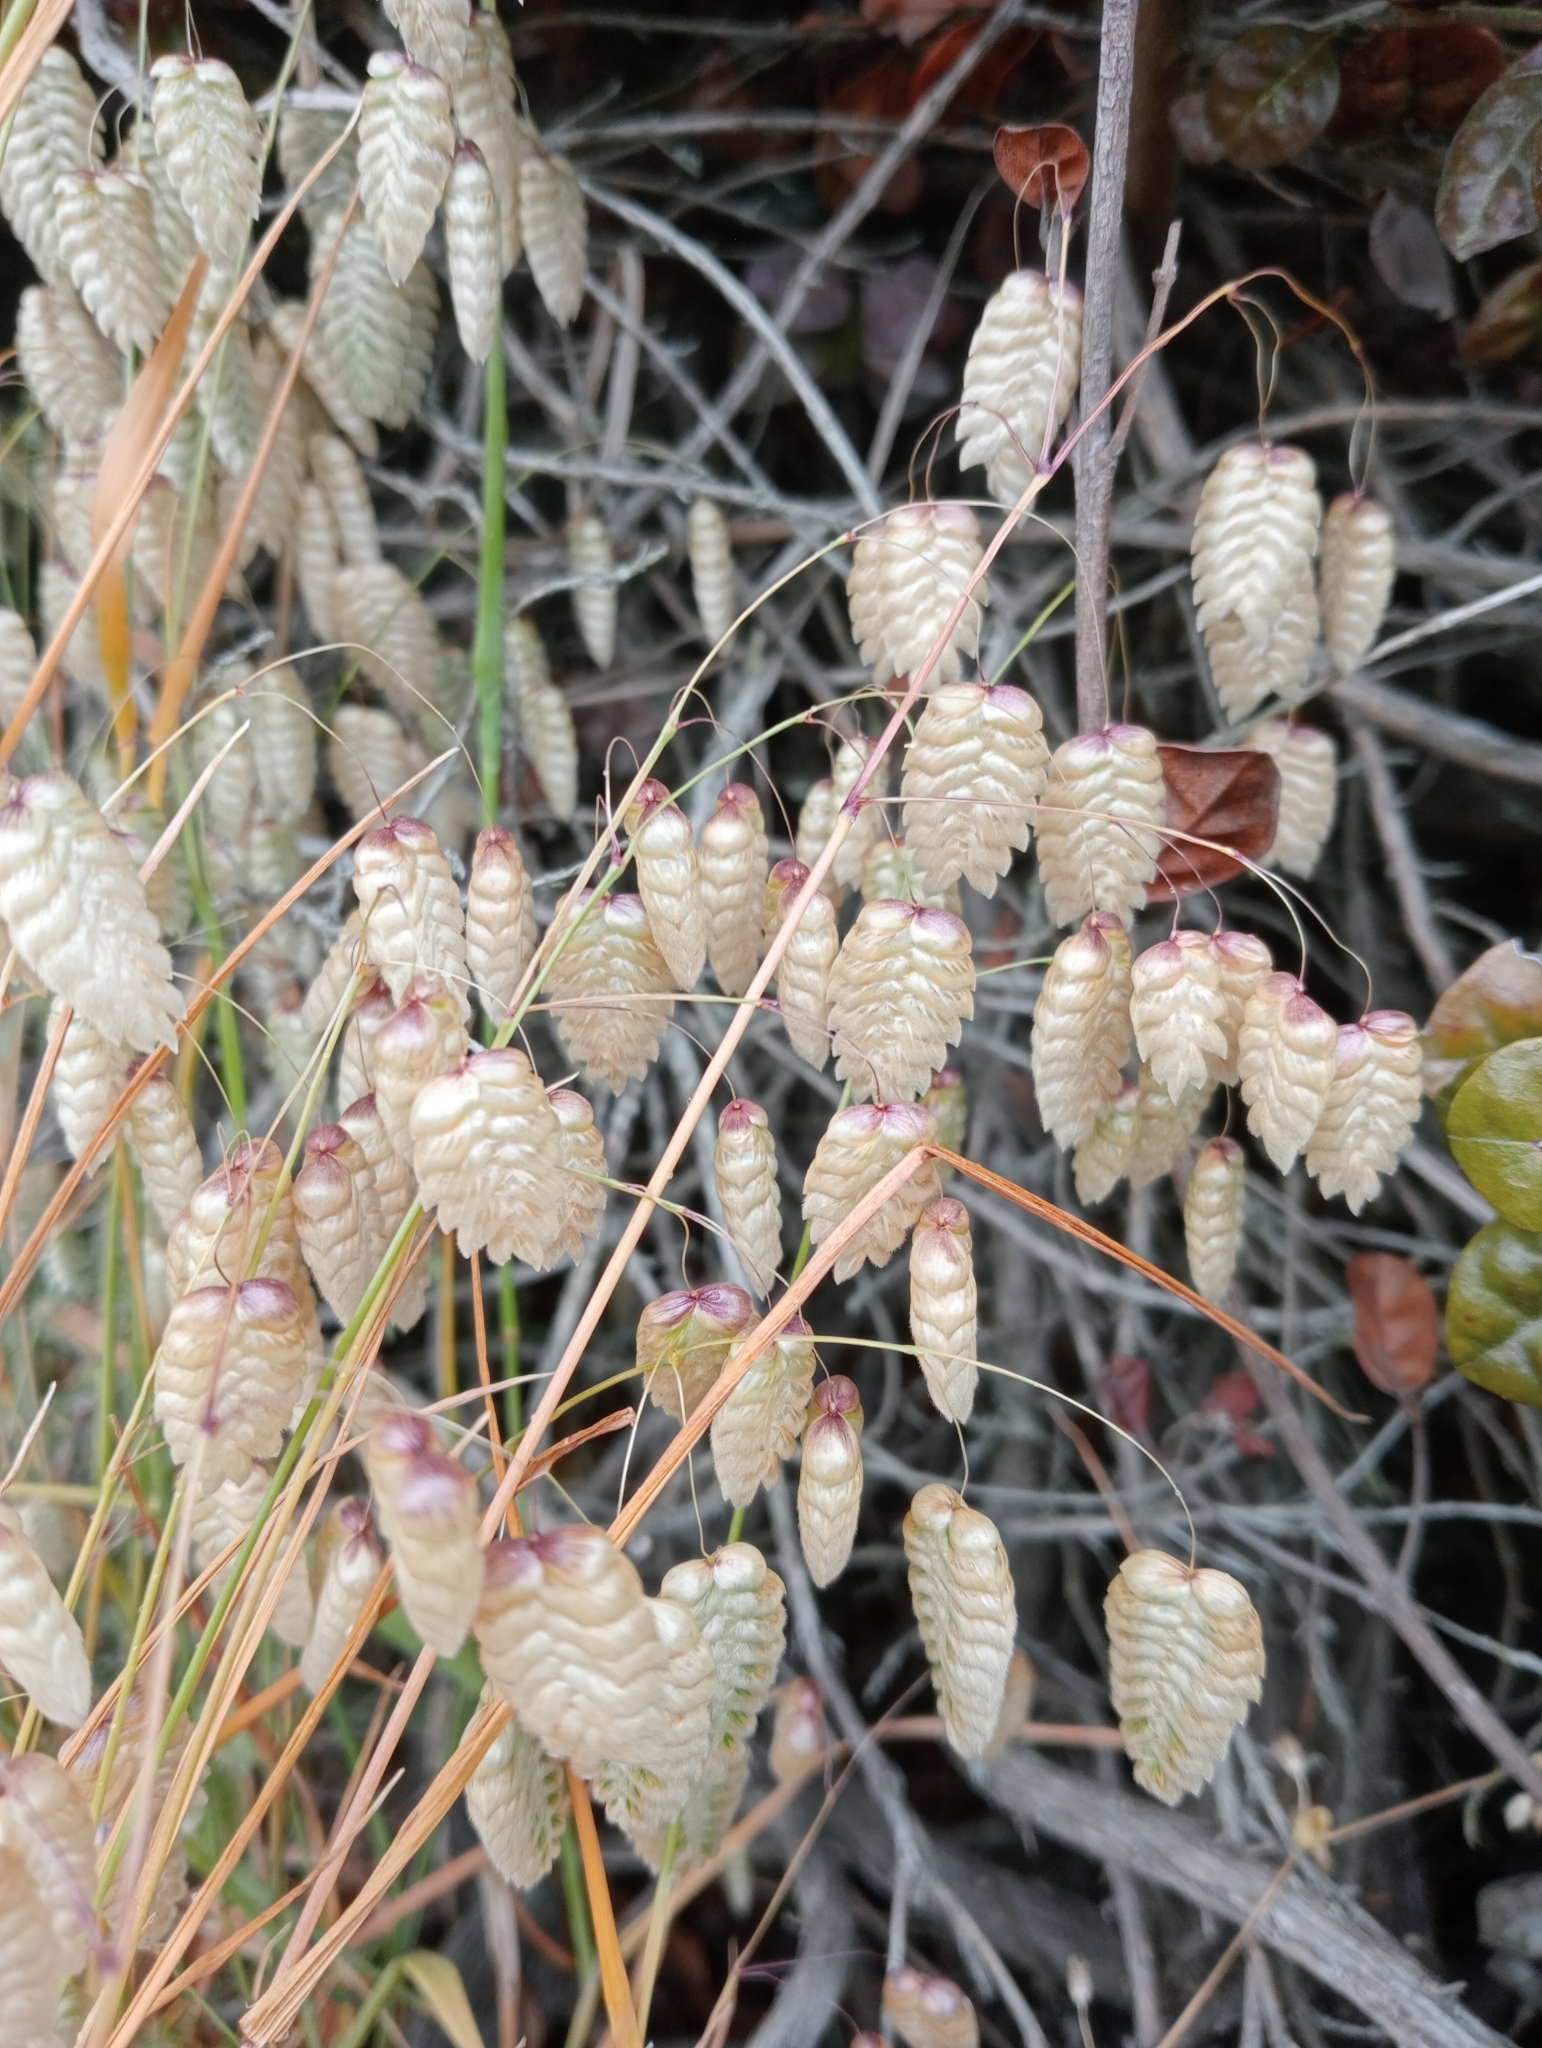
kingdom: Plantae
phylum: Tracheophyta
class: Liliopsida
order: Poales
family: Poaceae
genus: Briza
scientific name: Briza maxima
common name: Big quakinggrass
